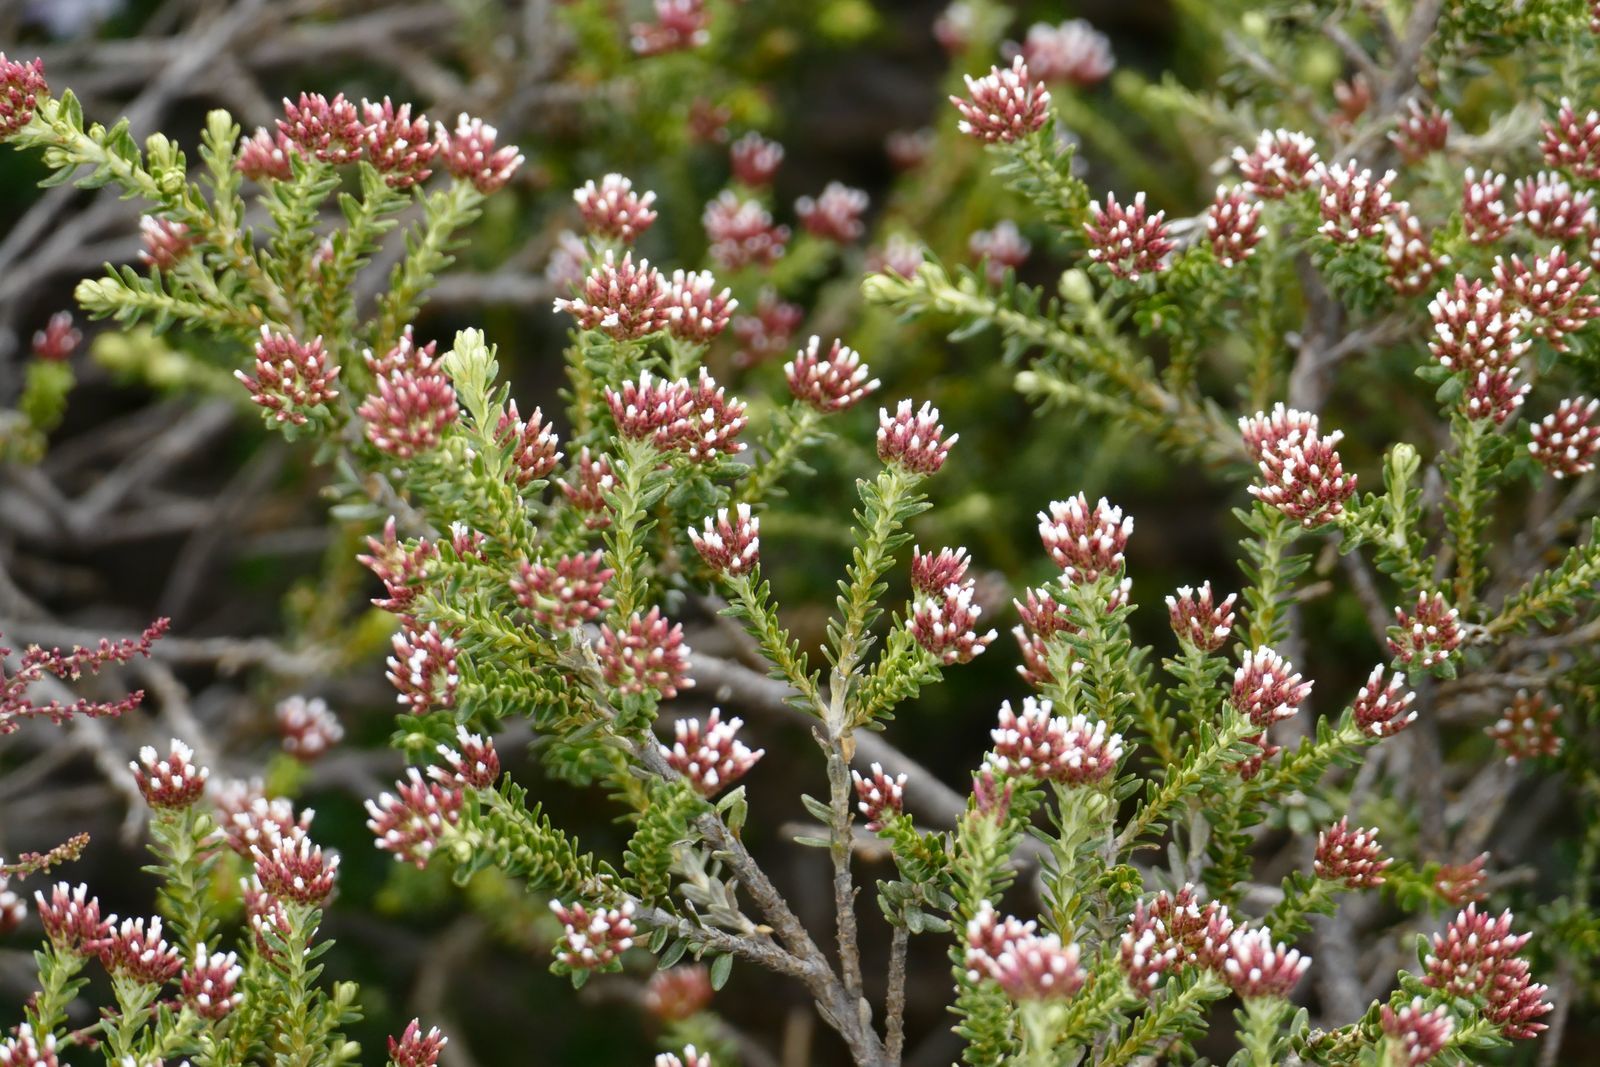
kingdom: Plantae
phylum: Tracheophyta
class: Magnoliopsida
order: Asterales
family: Asteraceae
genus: Ozothamnus
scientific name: Ozothamnus alpinus
